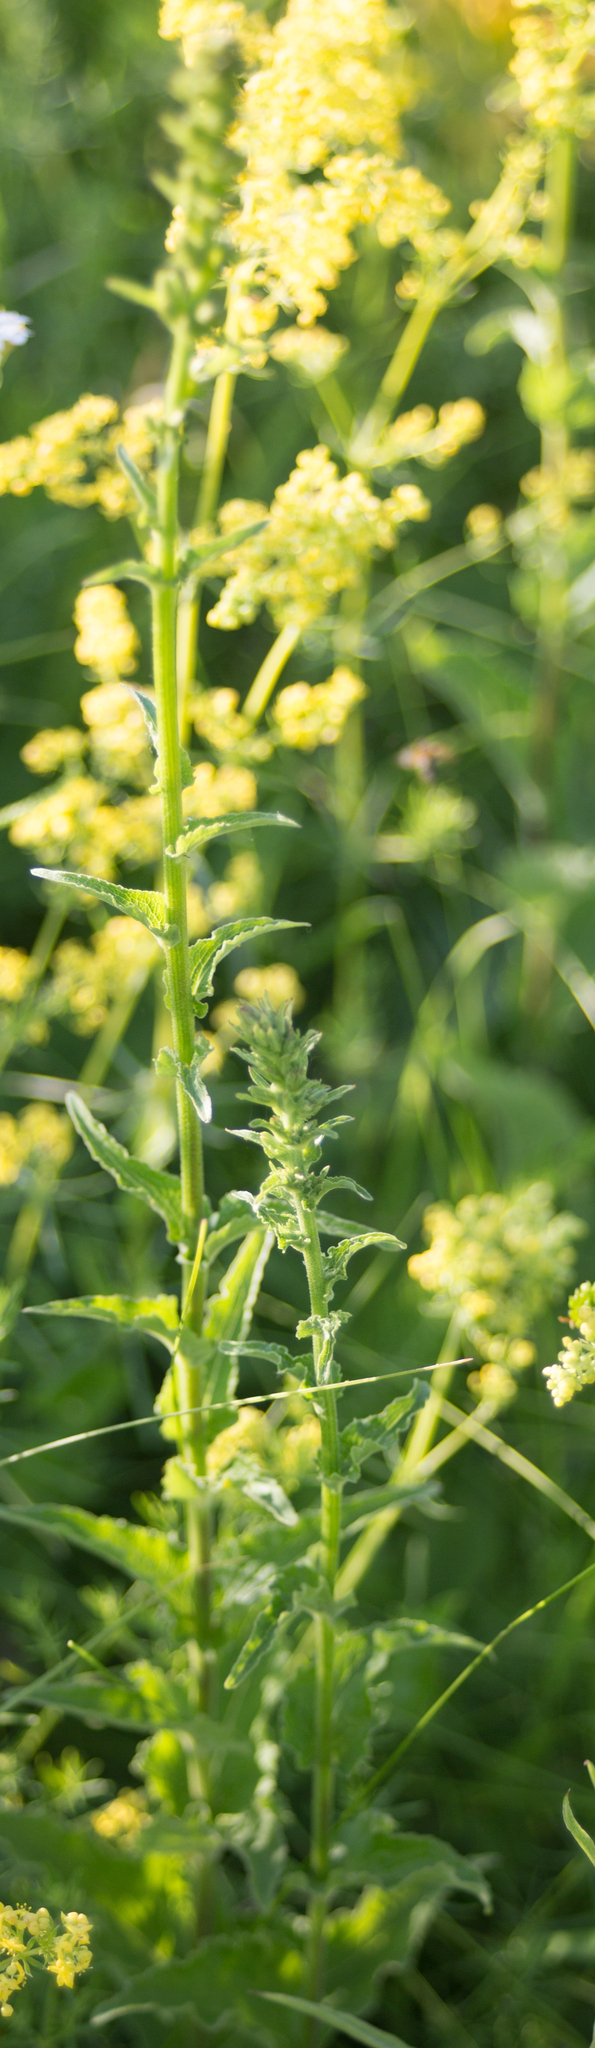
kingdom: Plantae
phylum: Tracheophyta
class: Magnoliopsida
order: Asterales
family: Campanulaceae
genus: Campanula
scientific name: Campanula bononiensis
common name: Pale bellflower
